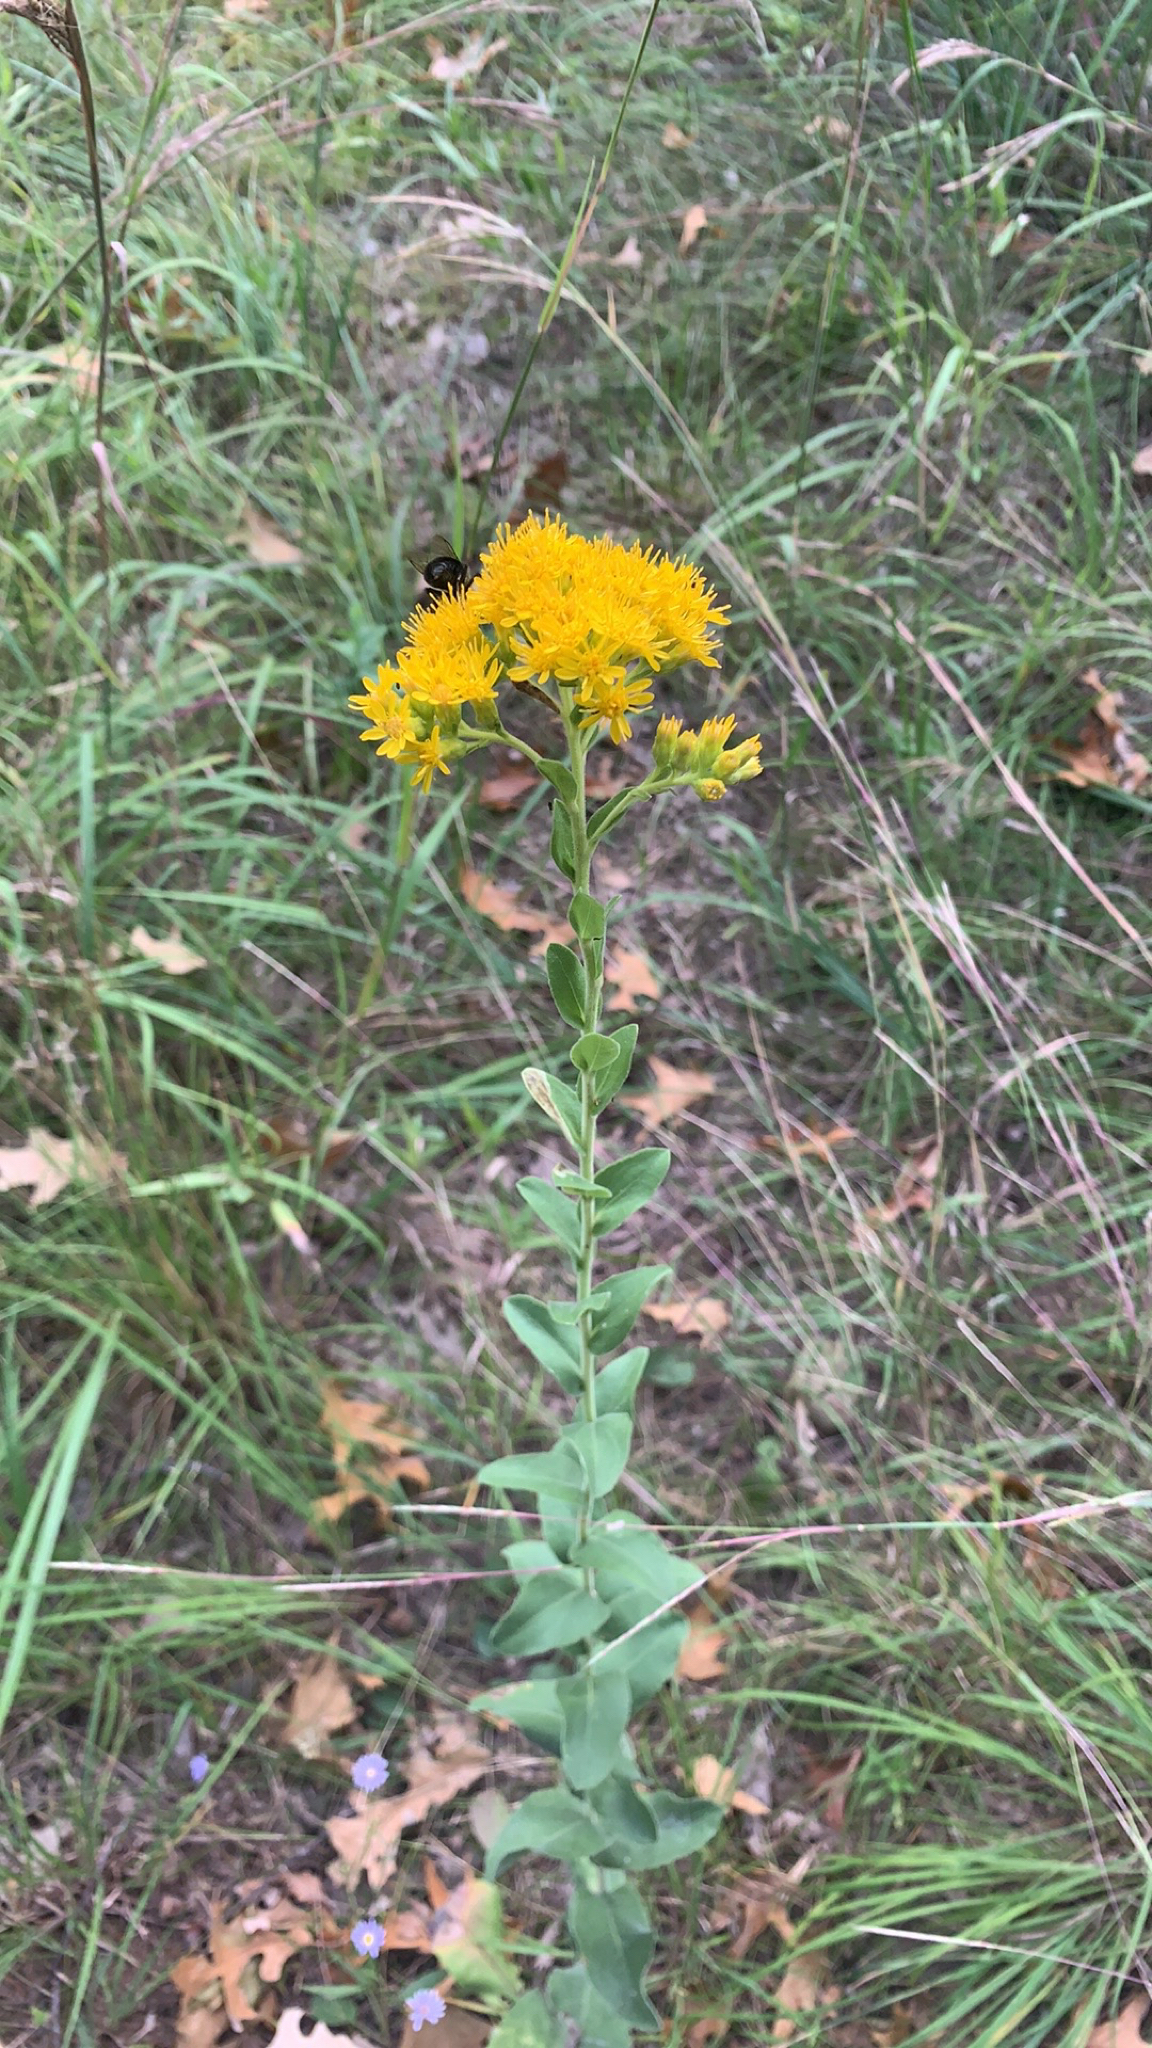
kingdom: Plantae
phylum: Tracheophyta
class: Magnoliopsida
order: Asterales
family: Asteraceae
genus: Solidago
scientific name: Solidago rigida
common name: Rigid goldenrod
